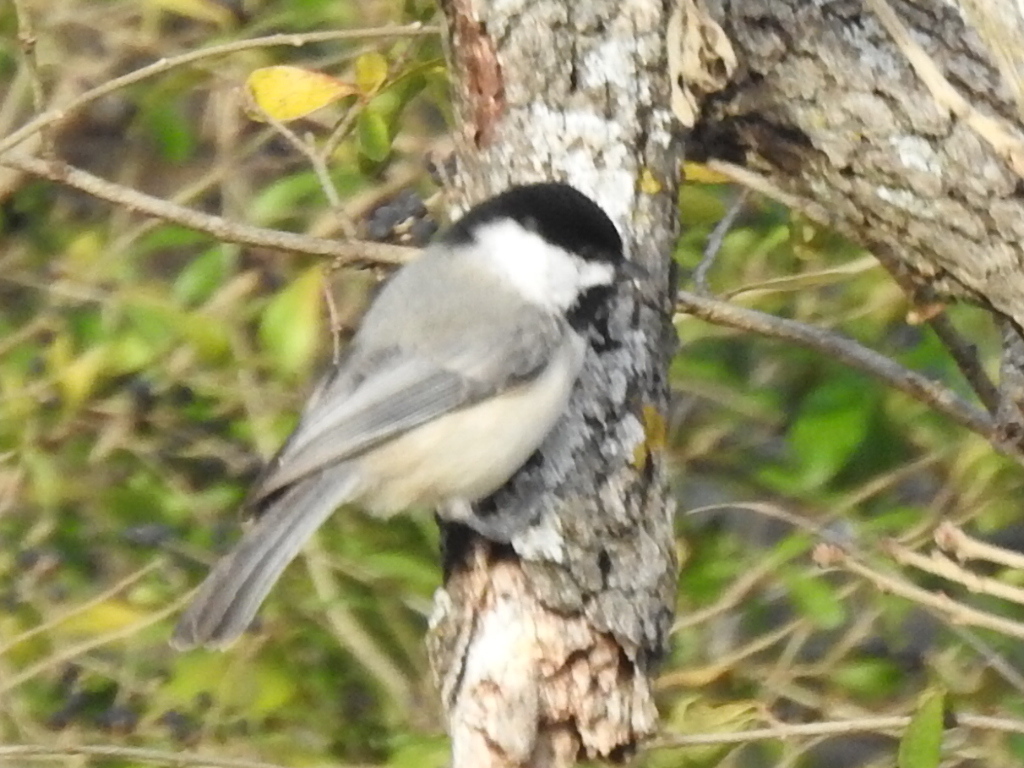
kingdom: Animalia
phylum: Chordata
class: Aves
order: Passeriformes
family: Paridae
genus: Poecile
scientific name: Poecile carolinensis
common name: Carolina chickadee
